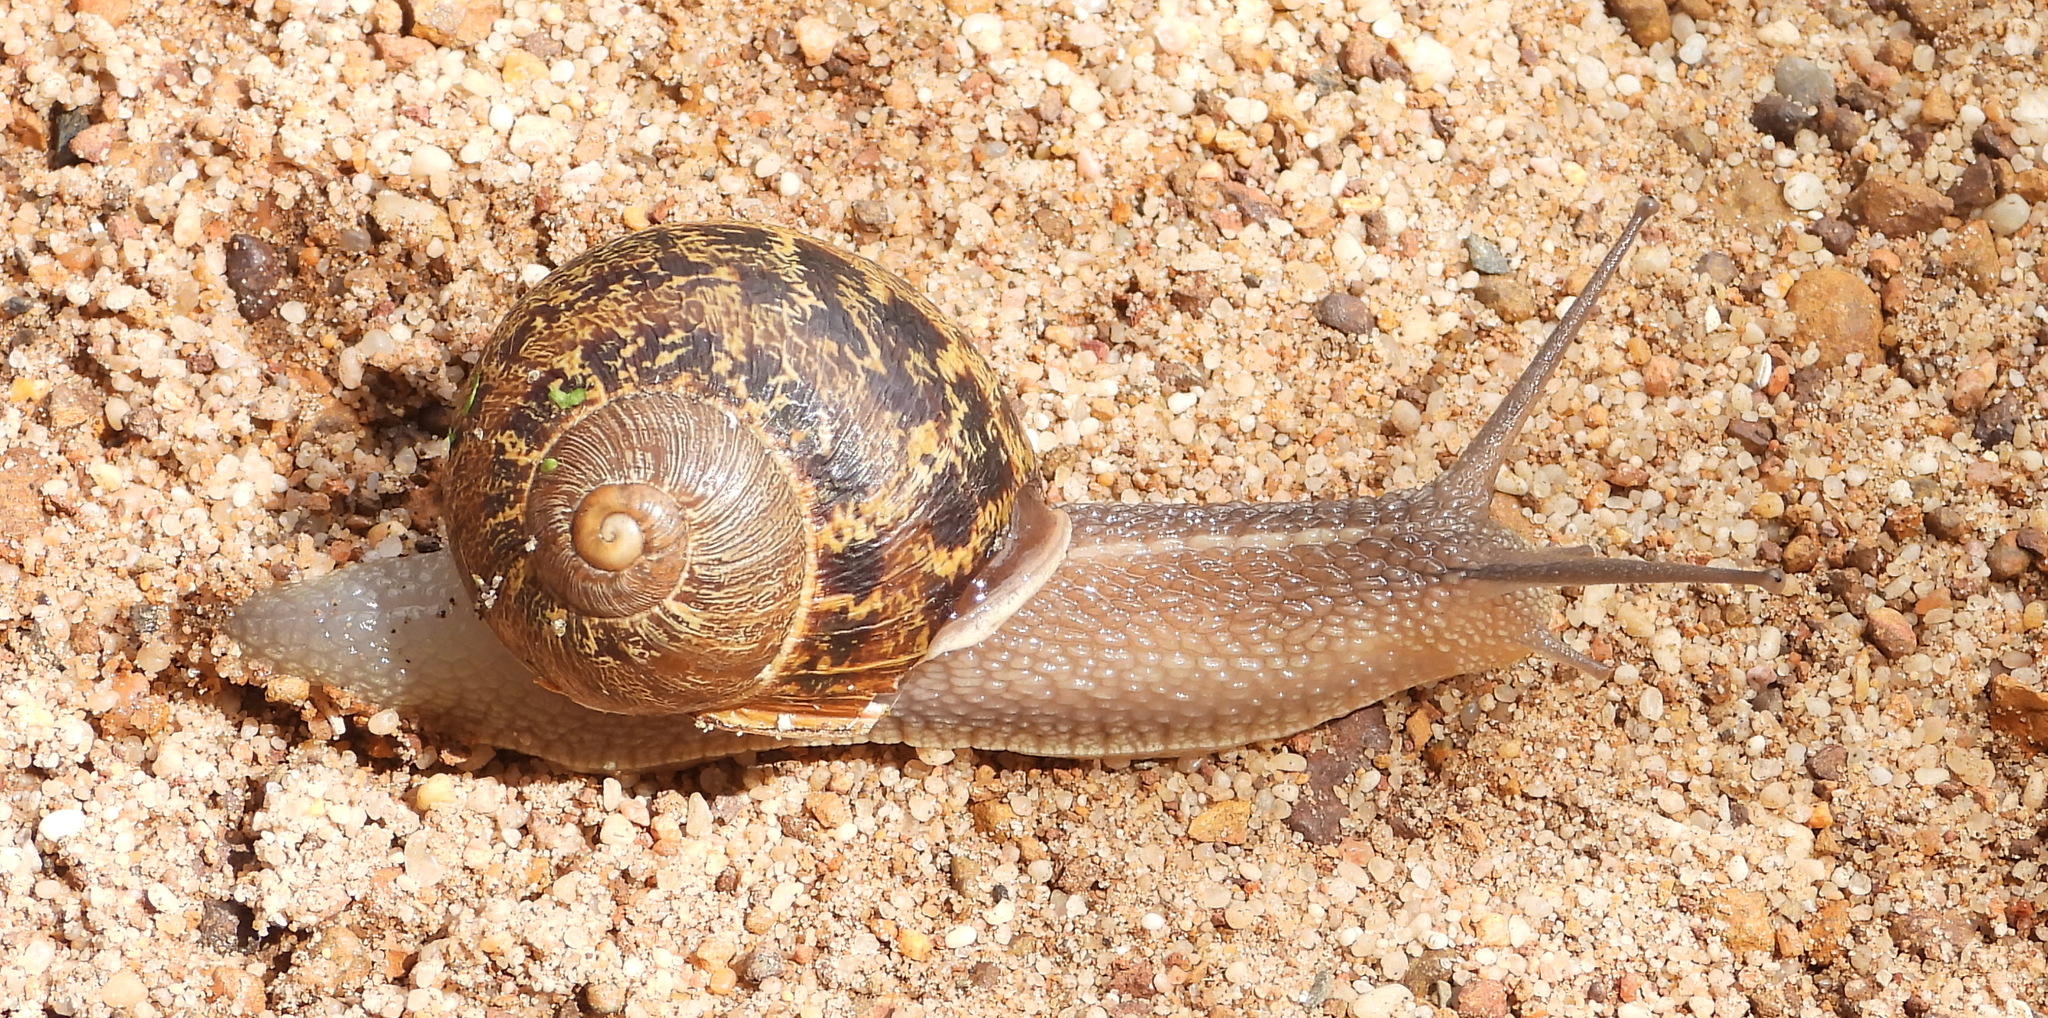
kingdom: Animalia
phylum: Mollusca
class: Gastropoda
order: Stylommatophora
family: Helicidae
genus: Cornu
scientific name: Cornu aspersum
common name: Brown garden snail
